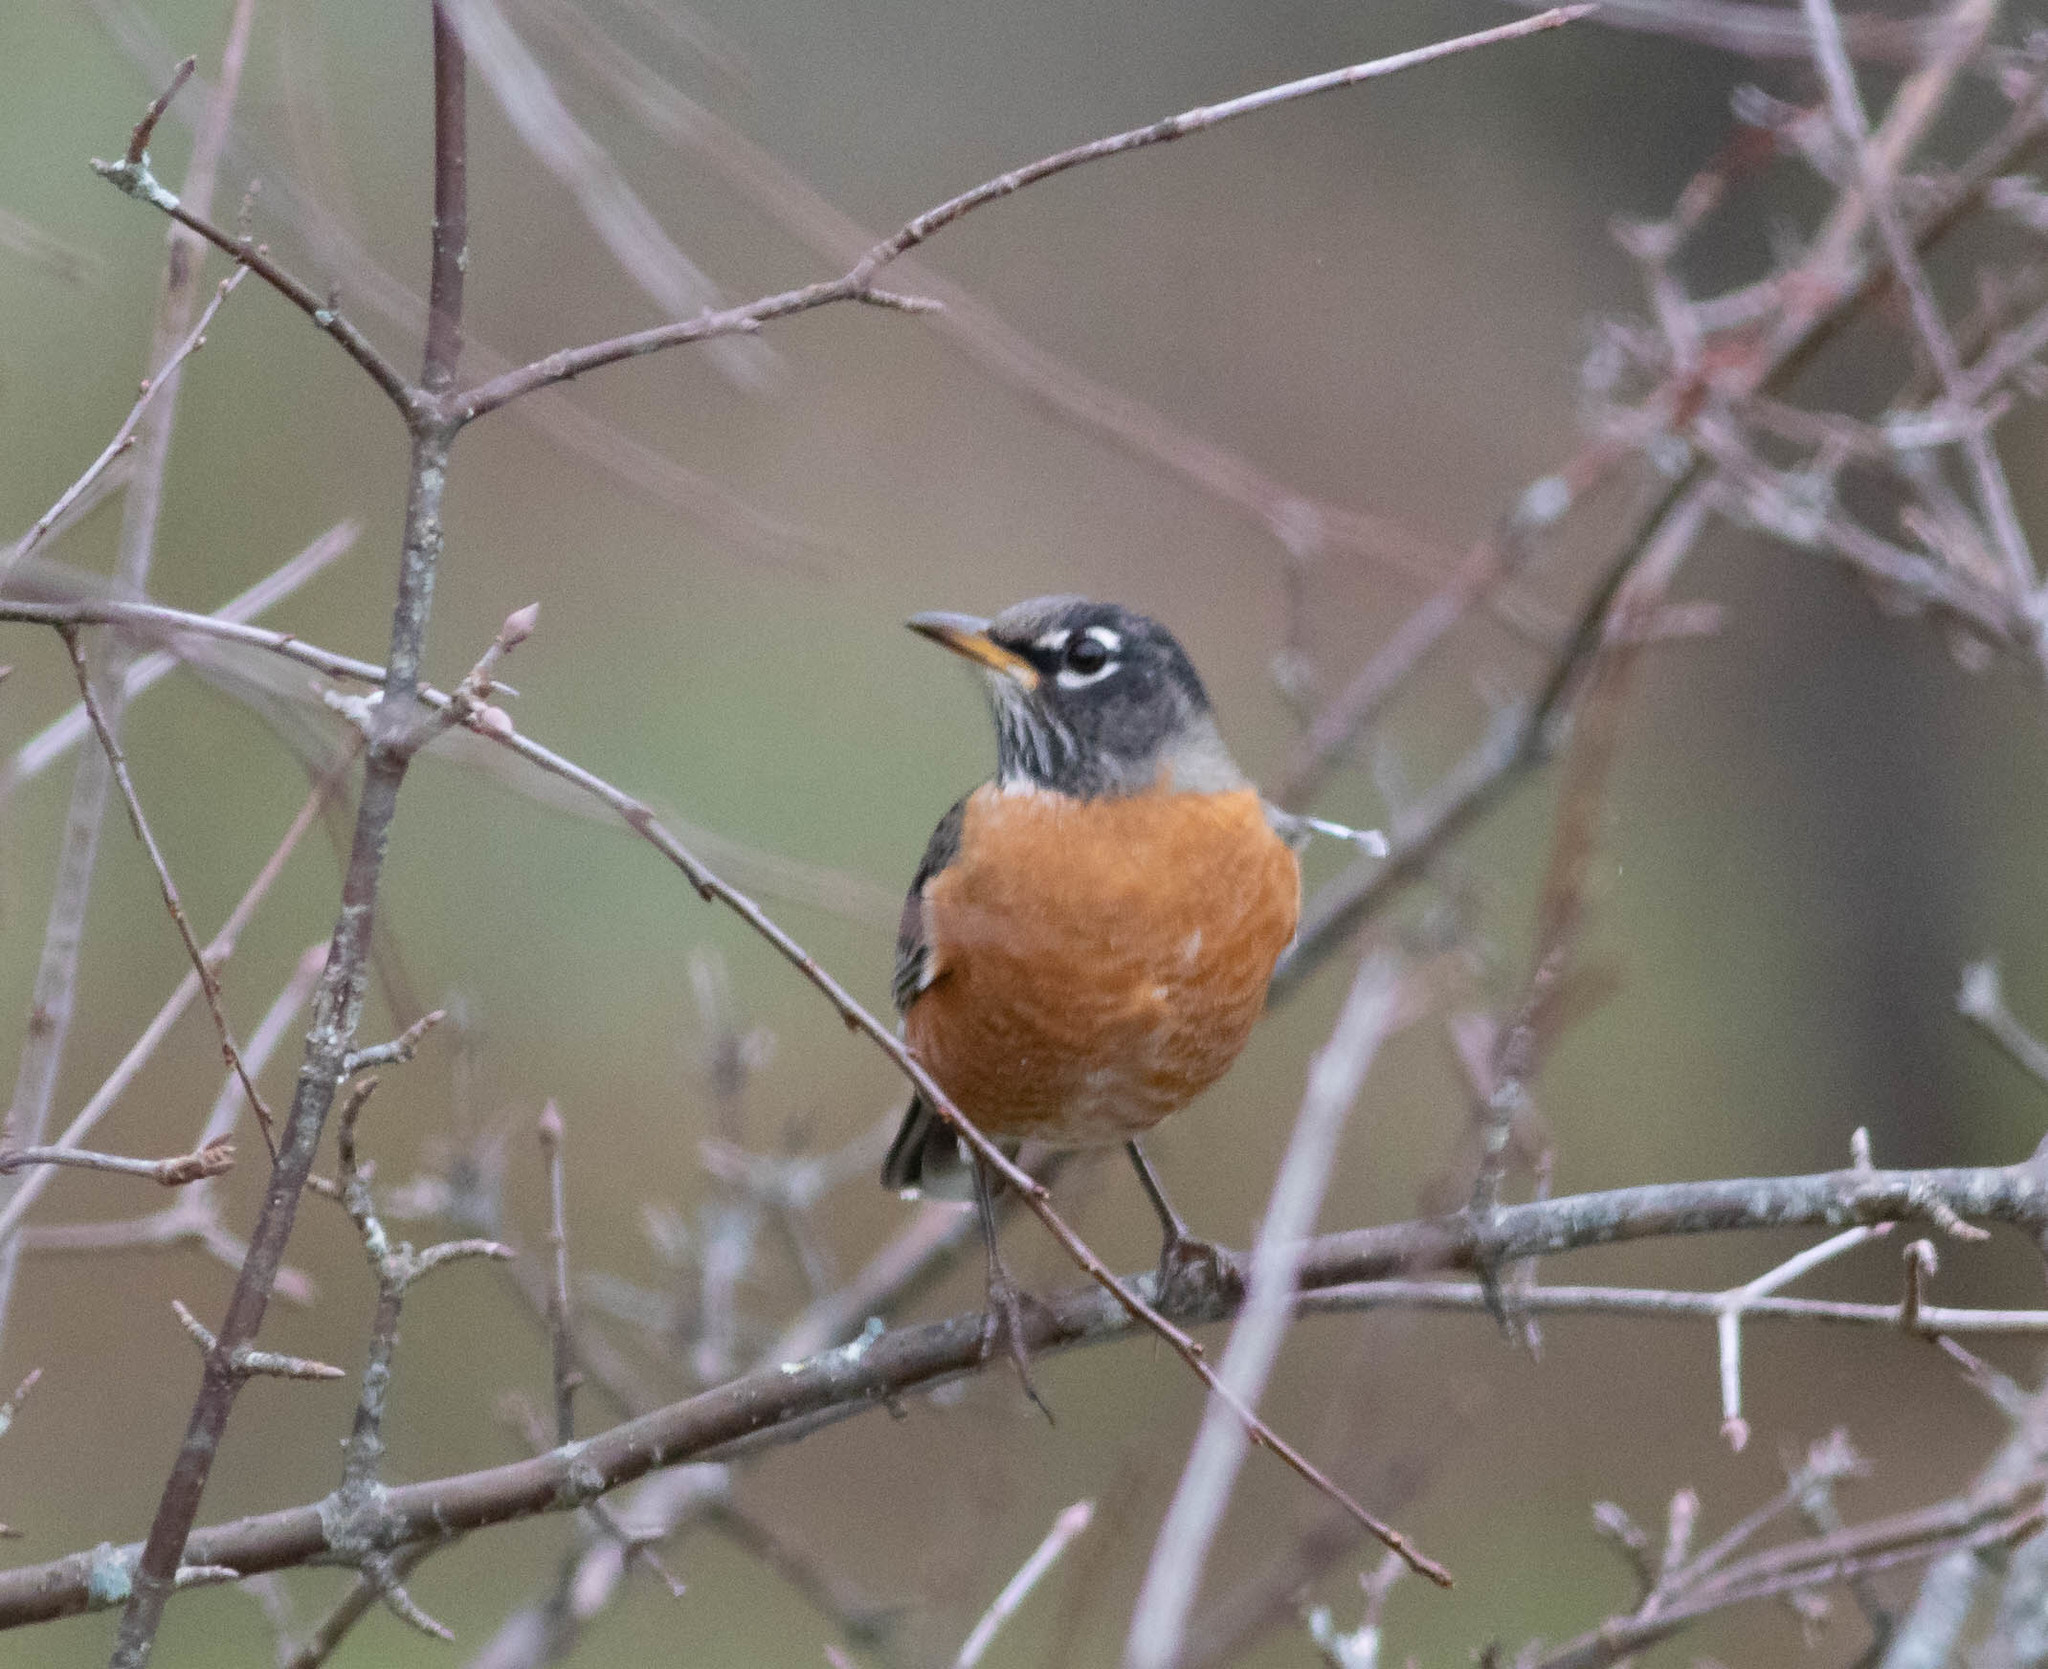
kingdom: Animalia
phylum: Chordata
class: Aves
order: Passeriformes
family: Turdidae
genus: Turdus
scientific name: Turdus migratorius
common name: American robin
